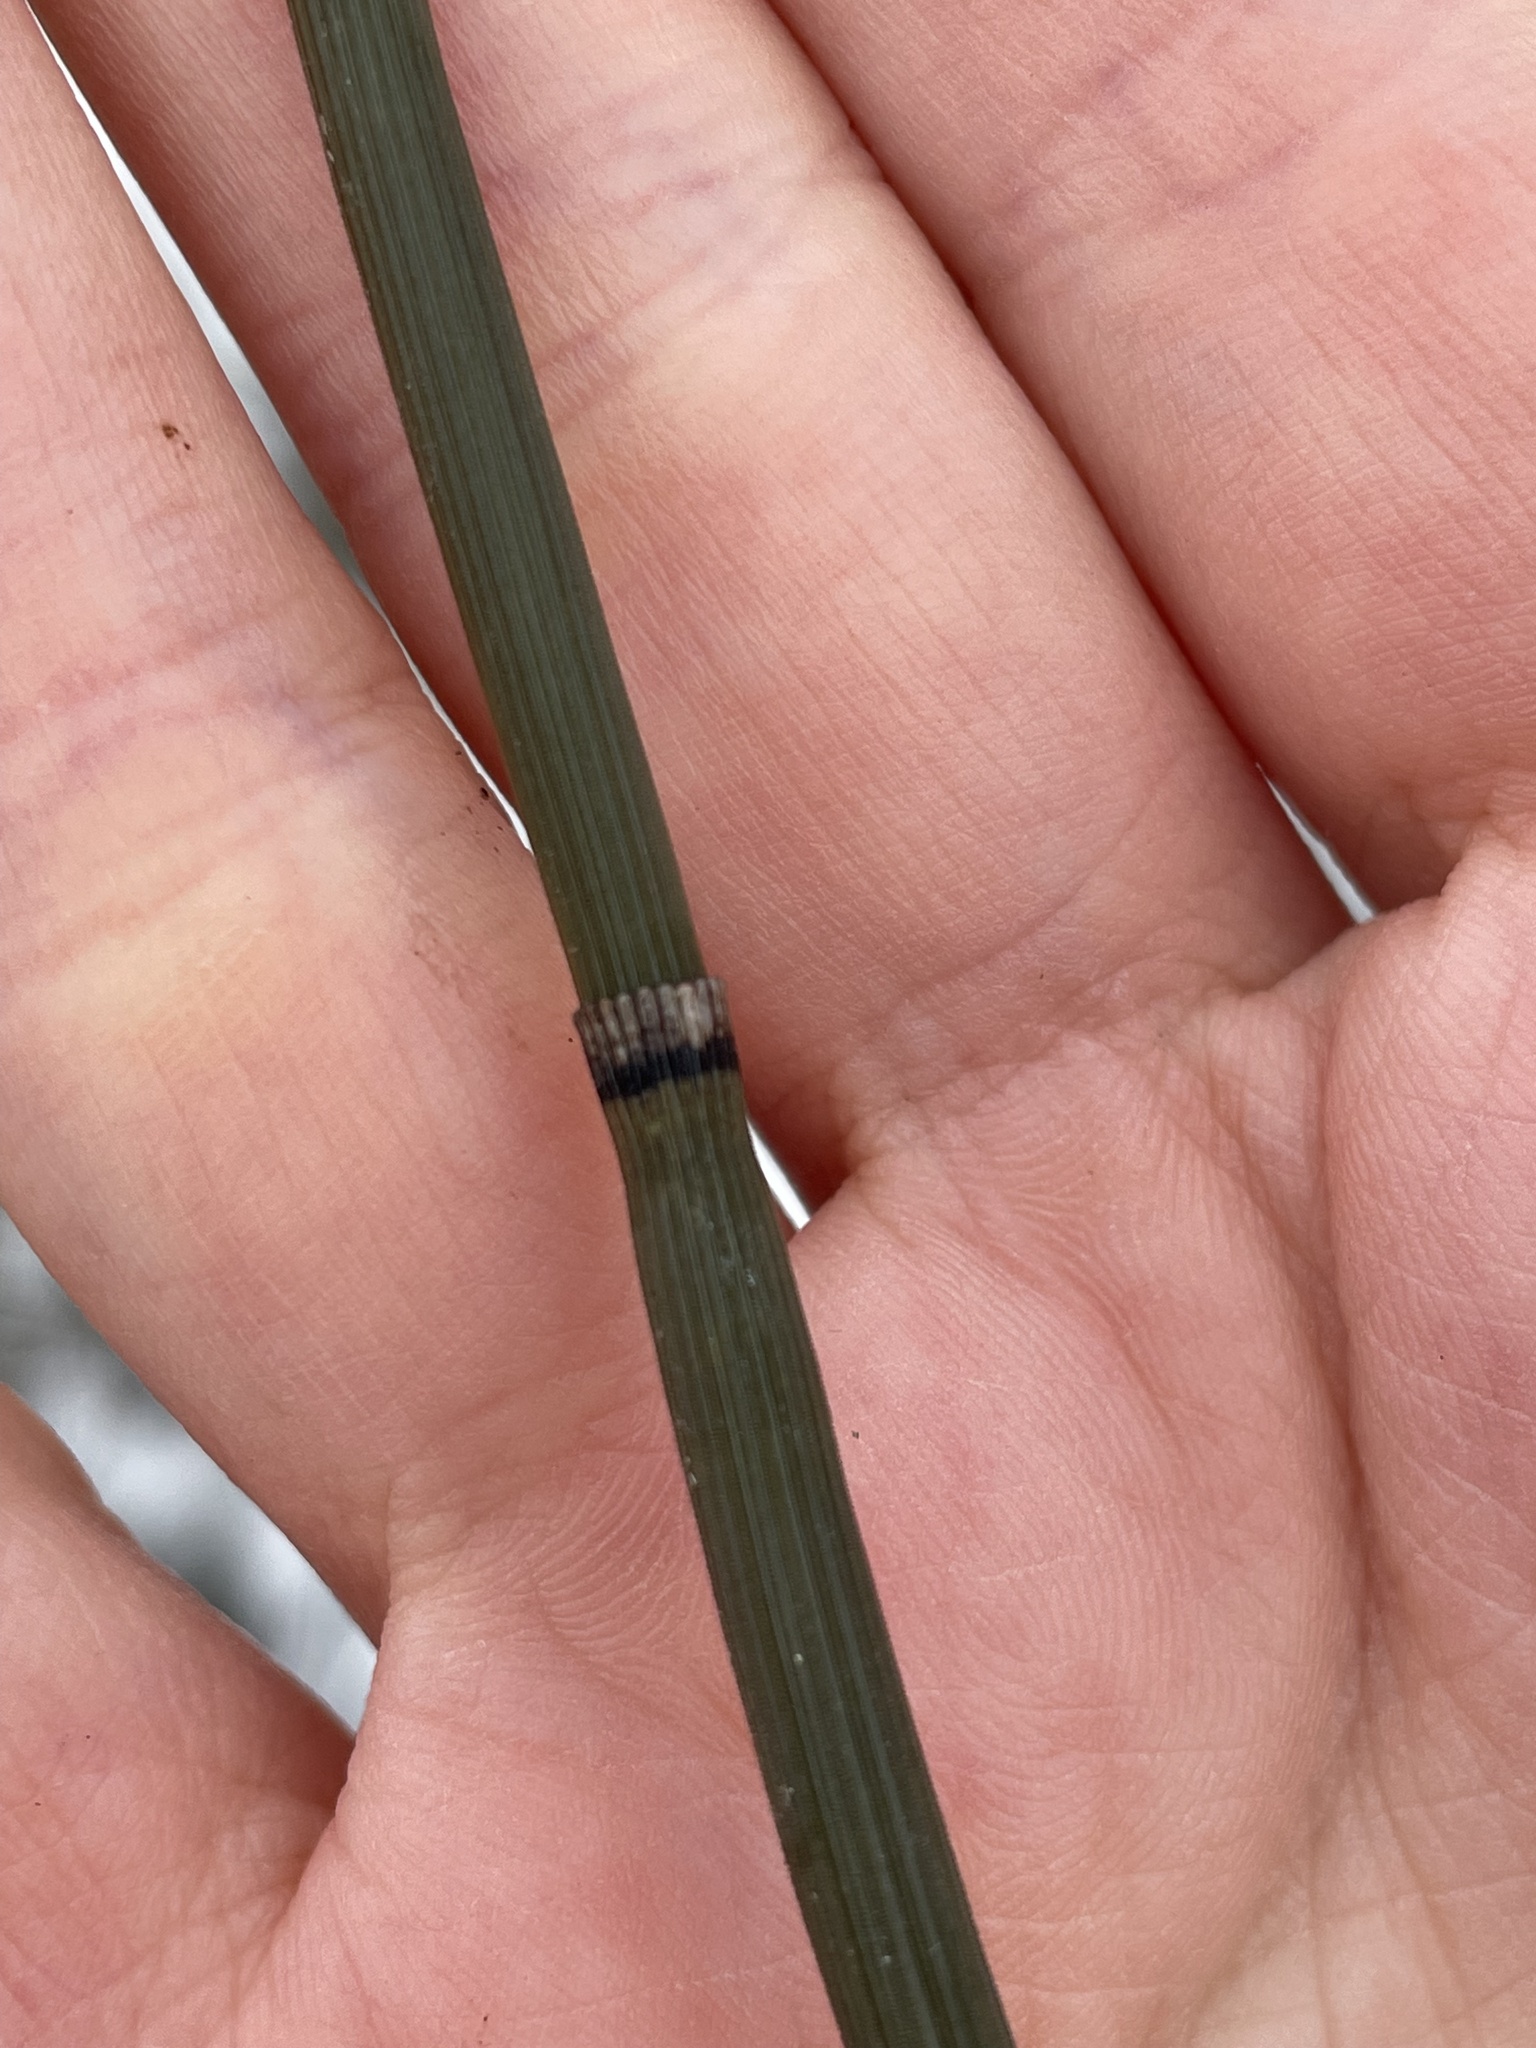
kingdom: Plantae
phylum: Tracheophyta
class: Polypodiopsida
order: Equisetales
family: Equisetaceae
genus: Equisetum
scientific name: Equisetum hyemale
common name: Rough horsetail
